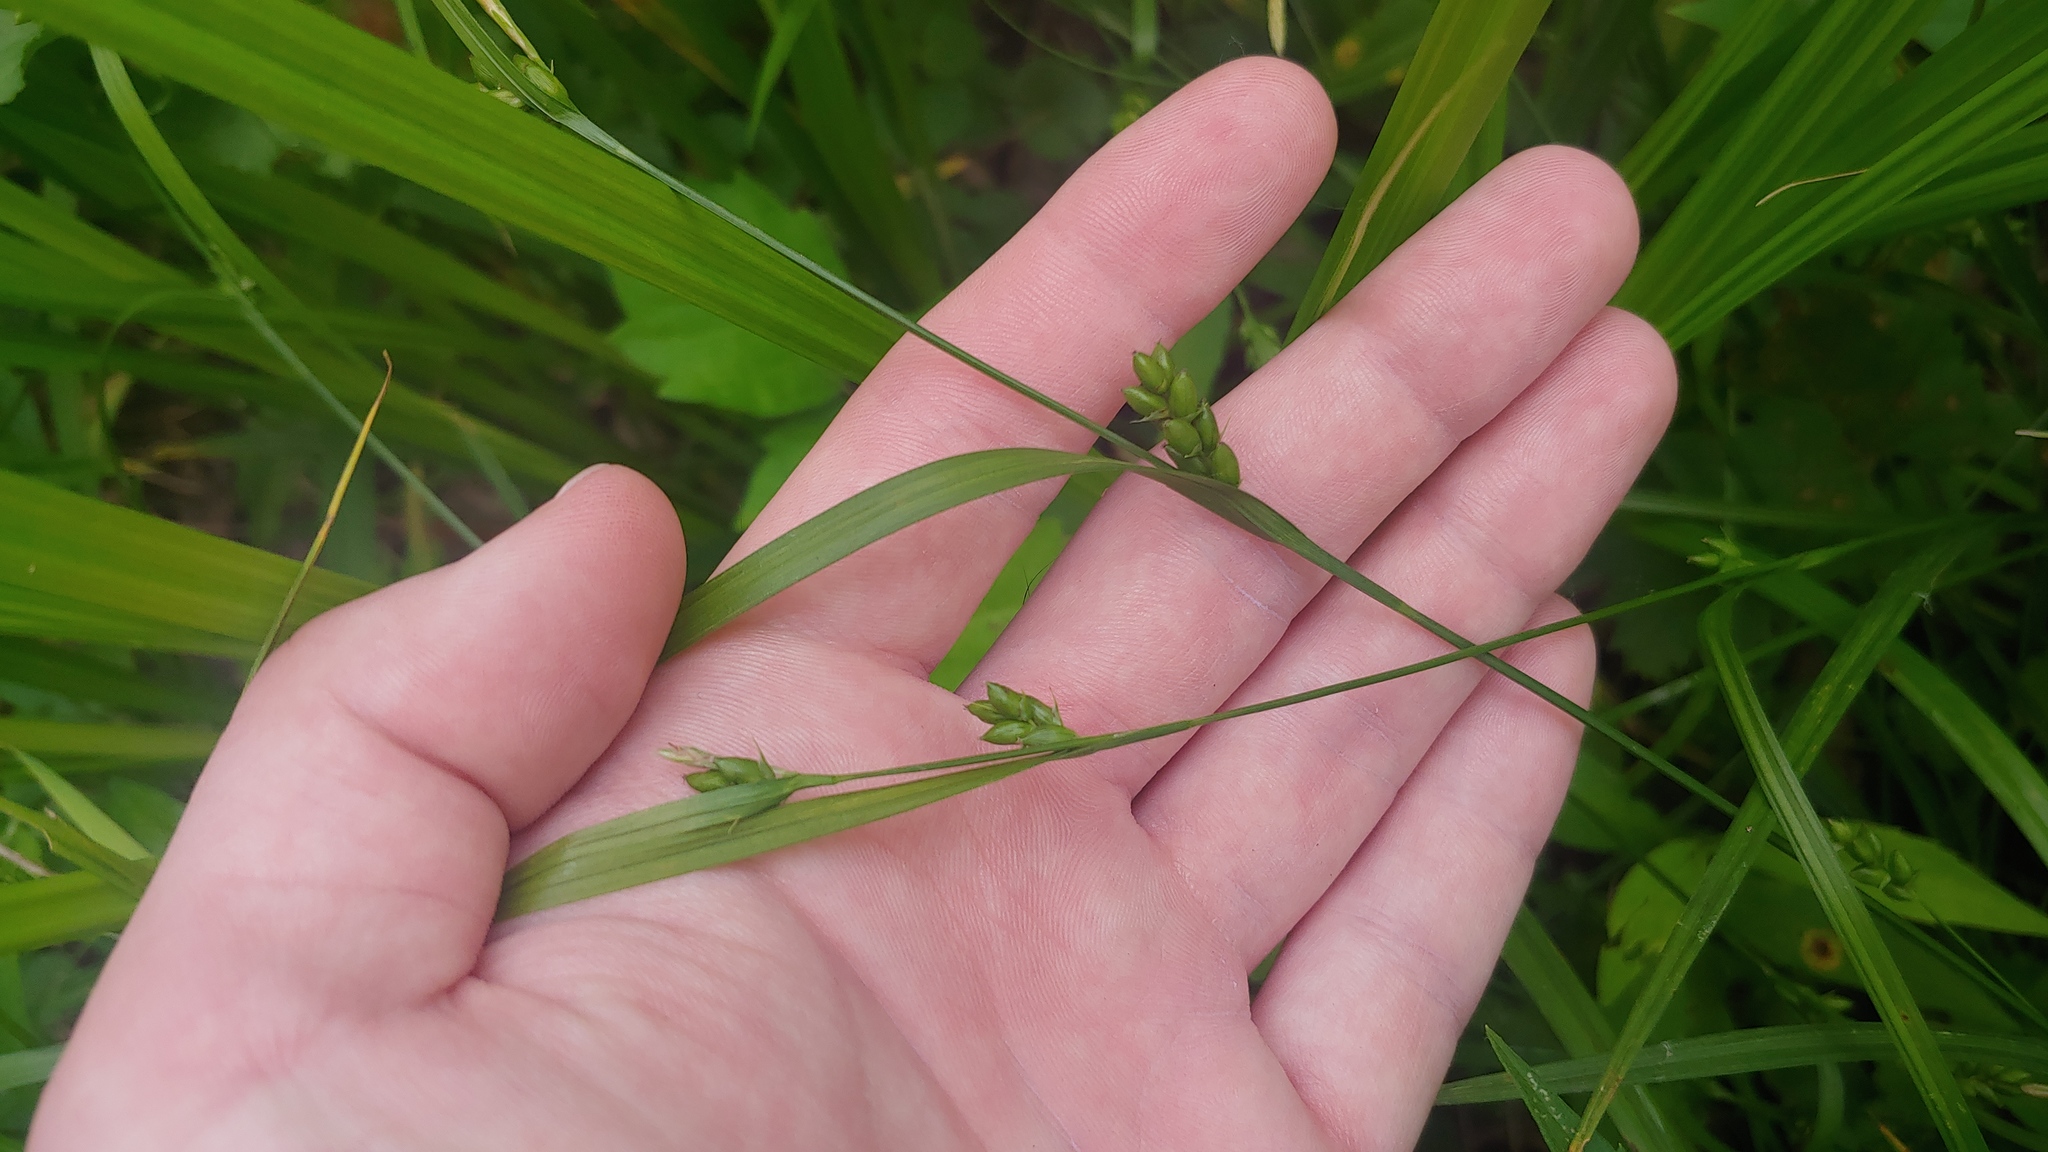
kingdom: Plantae
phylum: Tracheophyta
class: Liliopsida
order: Poales
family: Cyperaceae
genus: Carex
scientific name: Carex grisea
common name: Eastern narrow-leaved sedge
